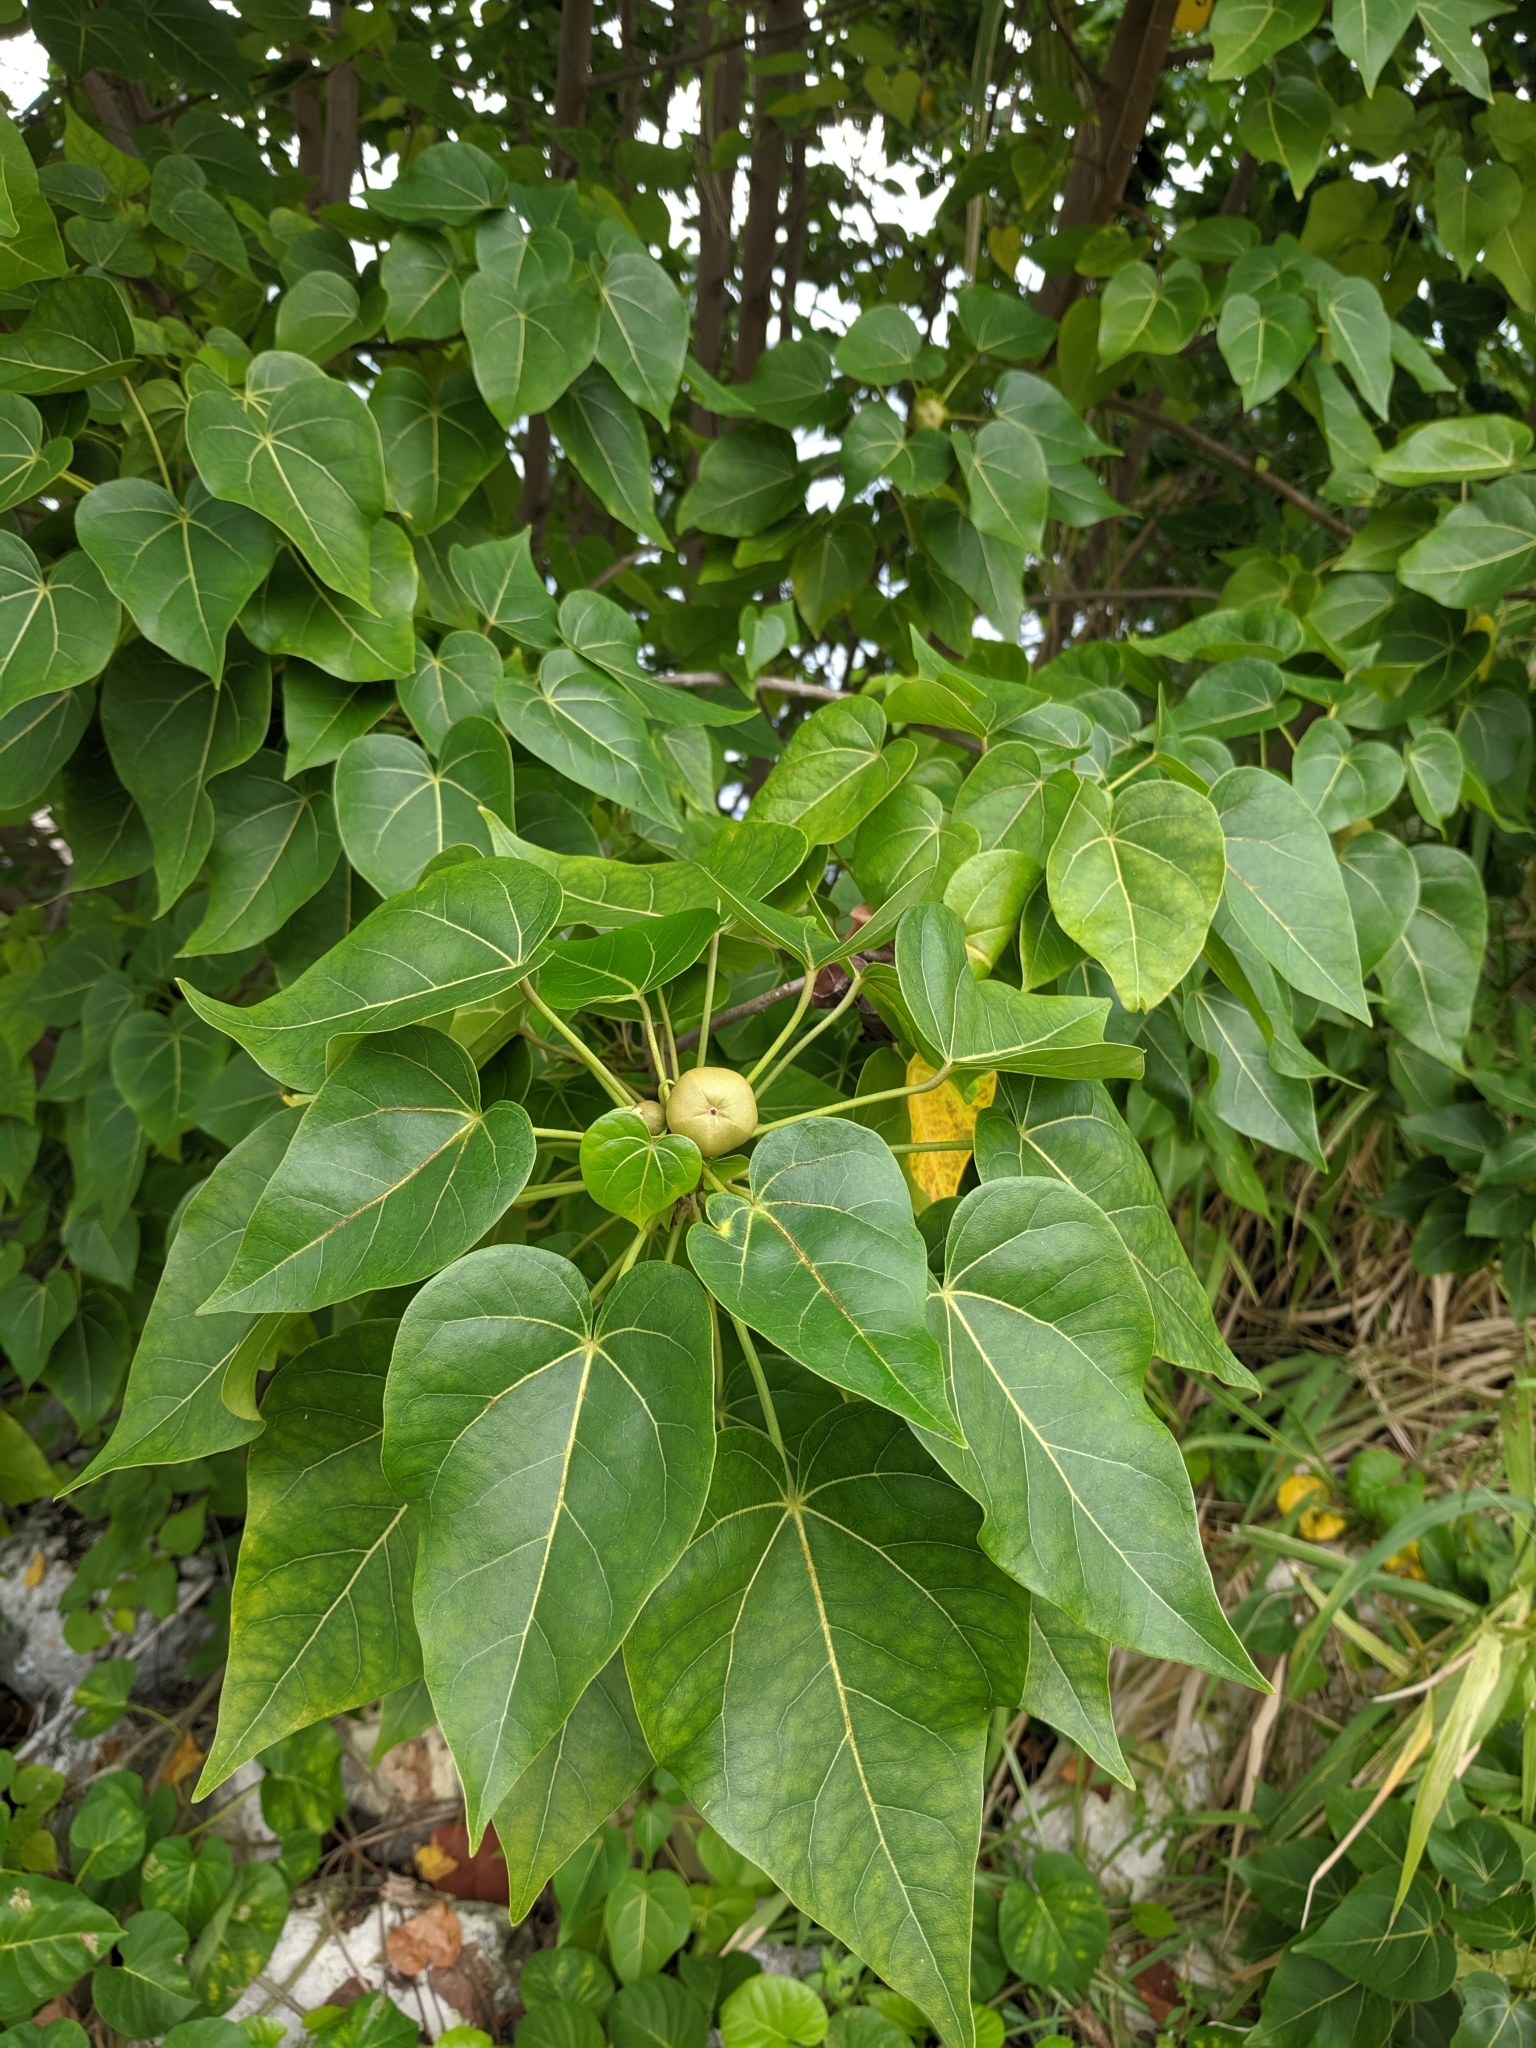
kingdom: Plantae
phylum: Tracheophyta
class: Magnoliopsida
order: Malvales
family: Malvaceae
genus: Thespesia
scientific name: Thespesia populnea
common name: Seaside mahoe
